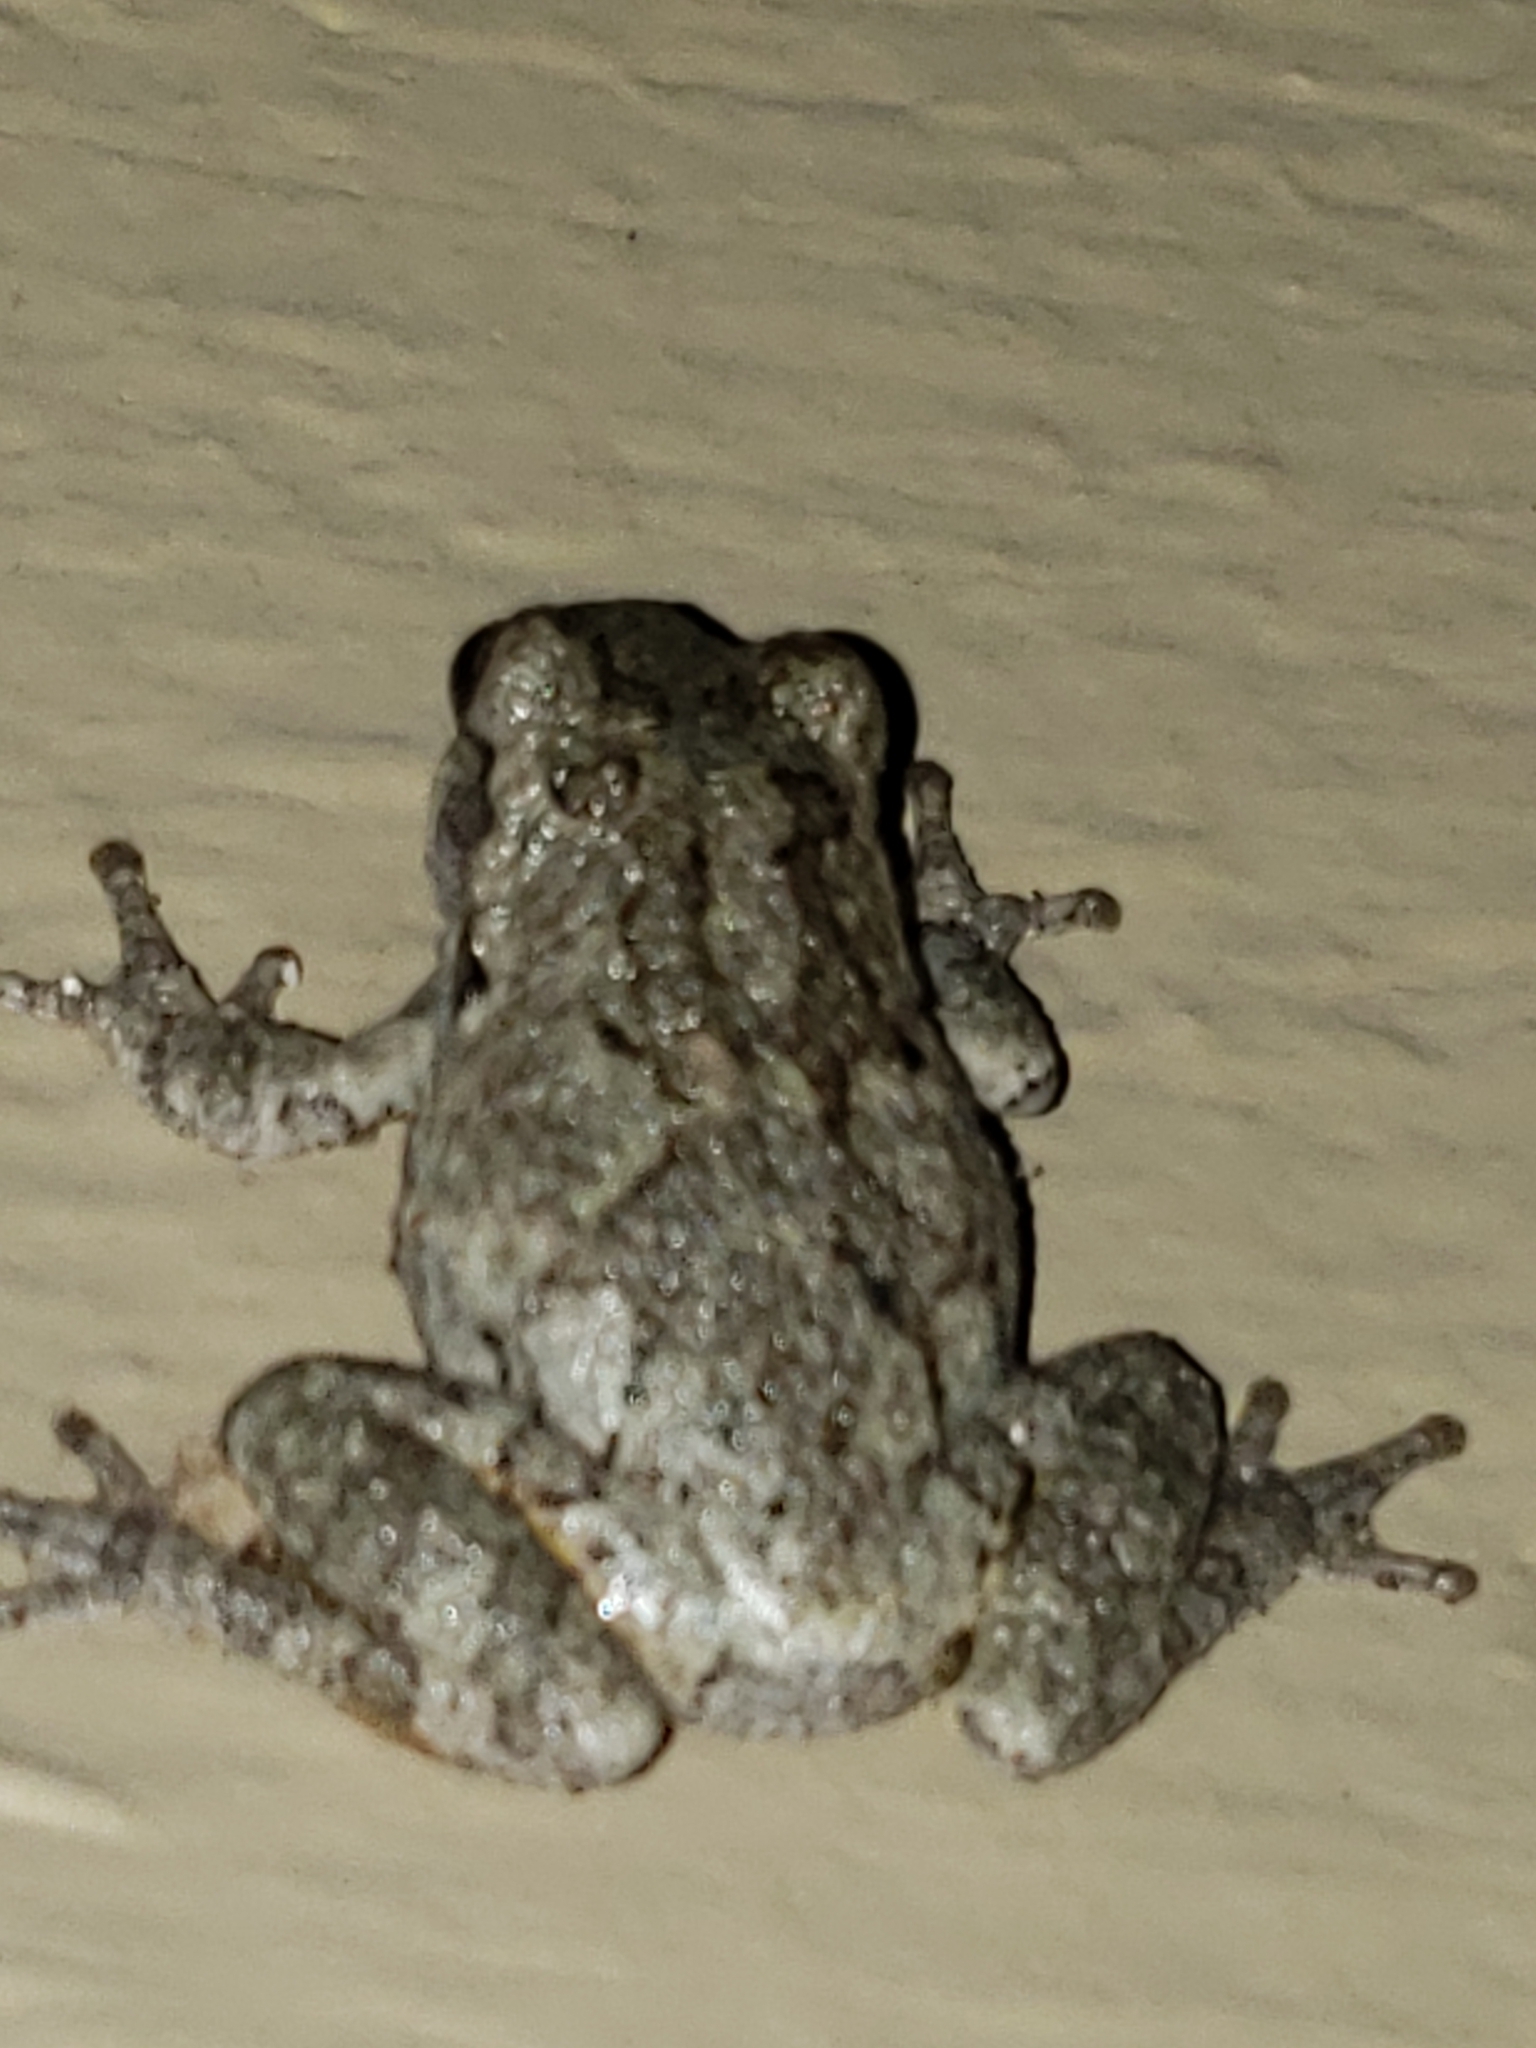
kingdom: Animalia
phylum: Chordata
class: Amphibia
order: Anura
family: Hylidae
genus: Hyla
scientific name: Hyla
